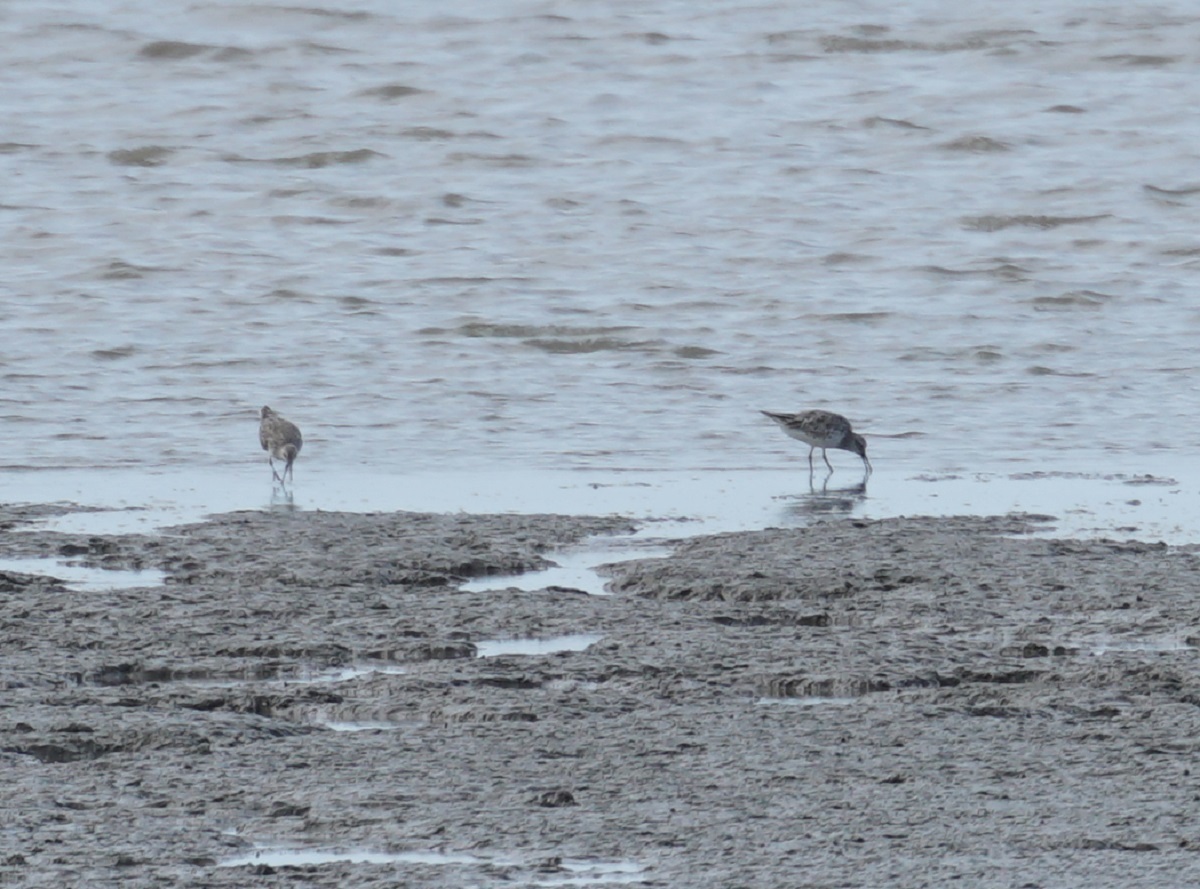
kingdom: Animalia
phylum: Chordata
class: Aves
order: Charadriiformes
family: Scolopacidae
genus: Calidris
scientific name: Calidris tenuirostris
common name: Great knot
